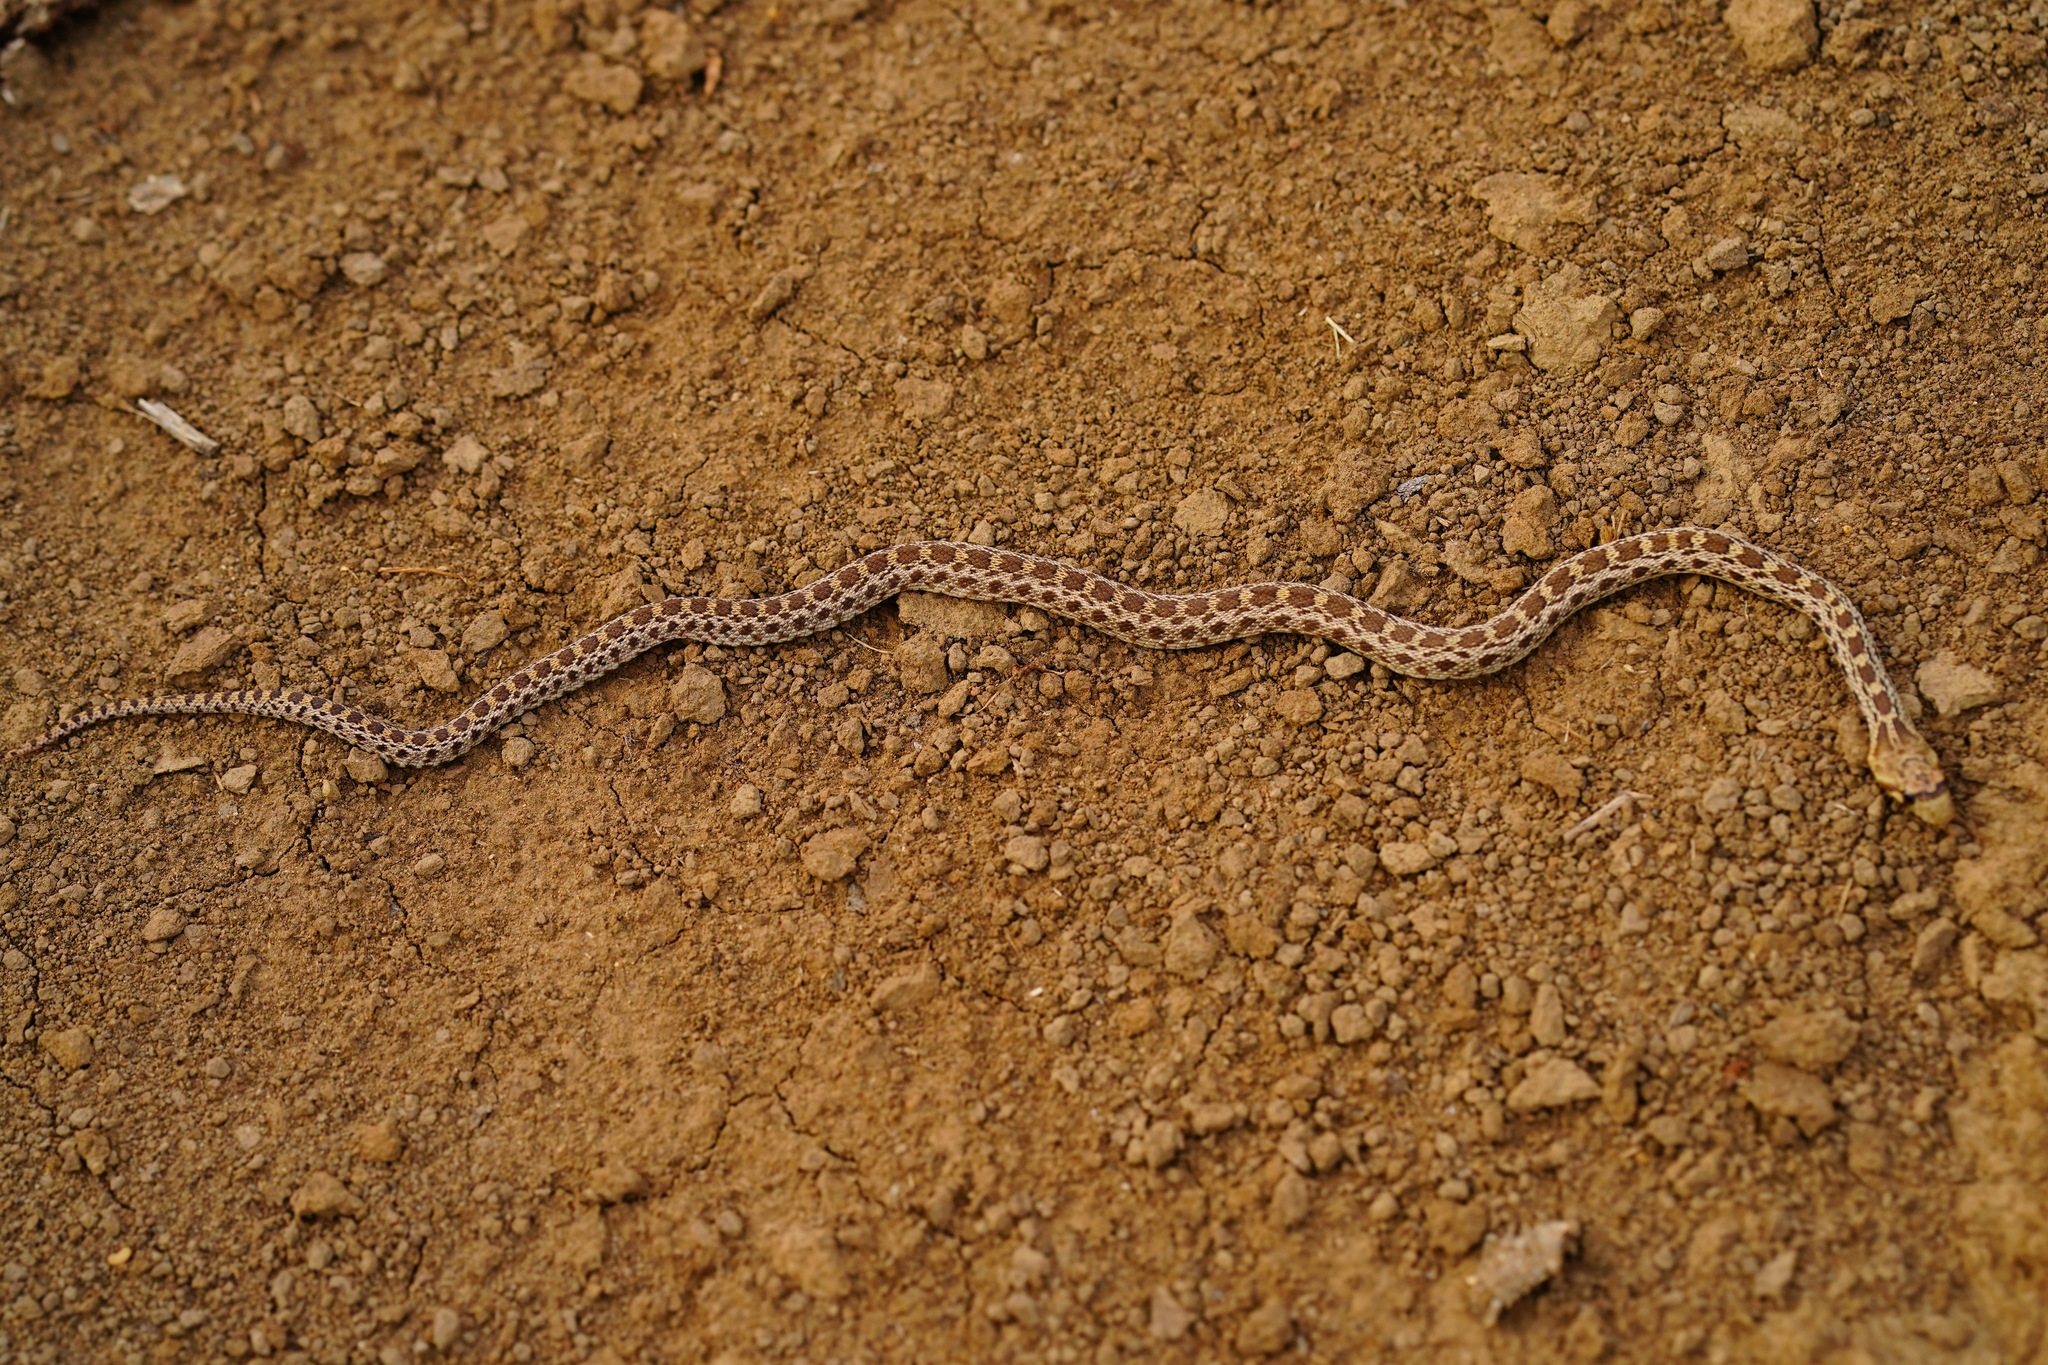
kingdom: Animalia
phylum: Chordata
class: Squamata
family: Colubridae
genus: Pituophis
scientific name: Pituophis catenifer
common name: Gopher snake
